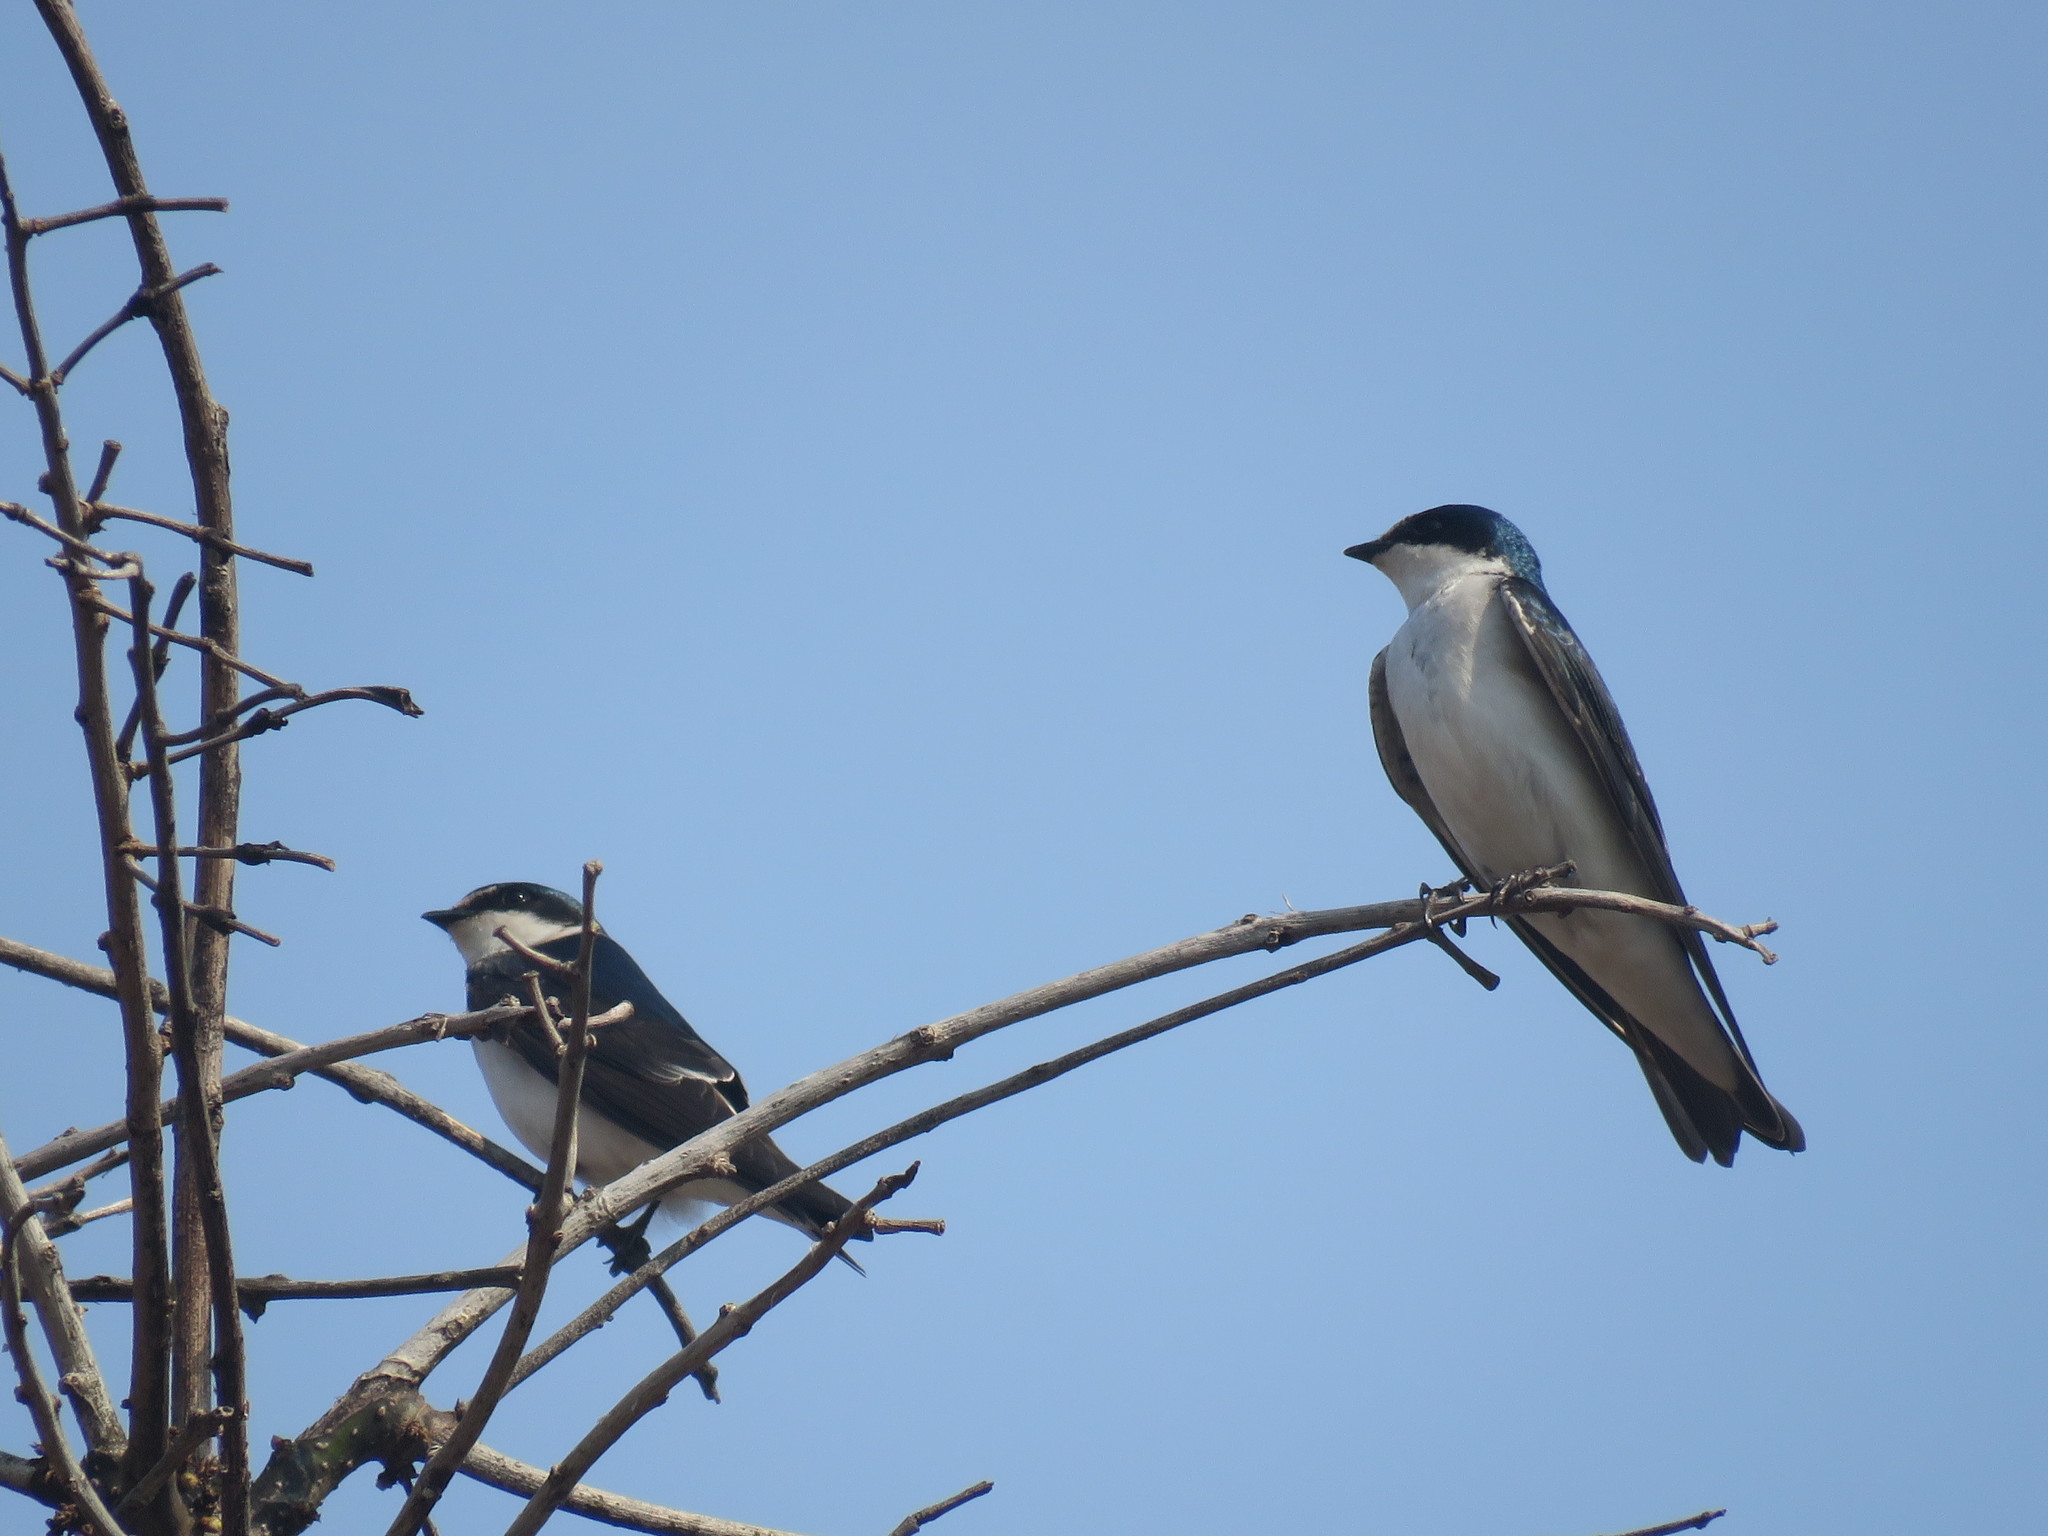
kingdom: Animalia
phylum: Chordata
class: Aves
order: Passeriformes
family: Hirundinidae
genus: Tachycineta
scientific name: Tachycineta leucorrhoa
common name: White-rumped swallow
